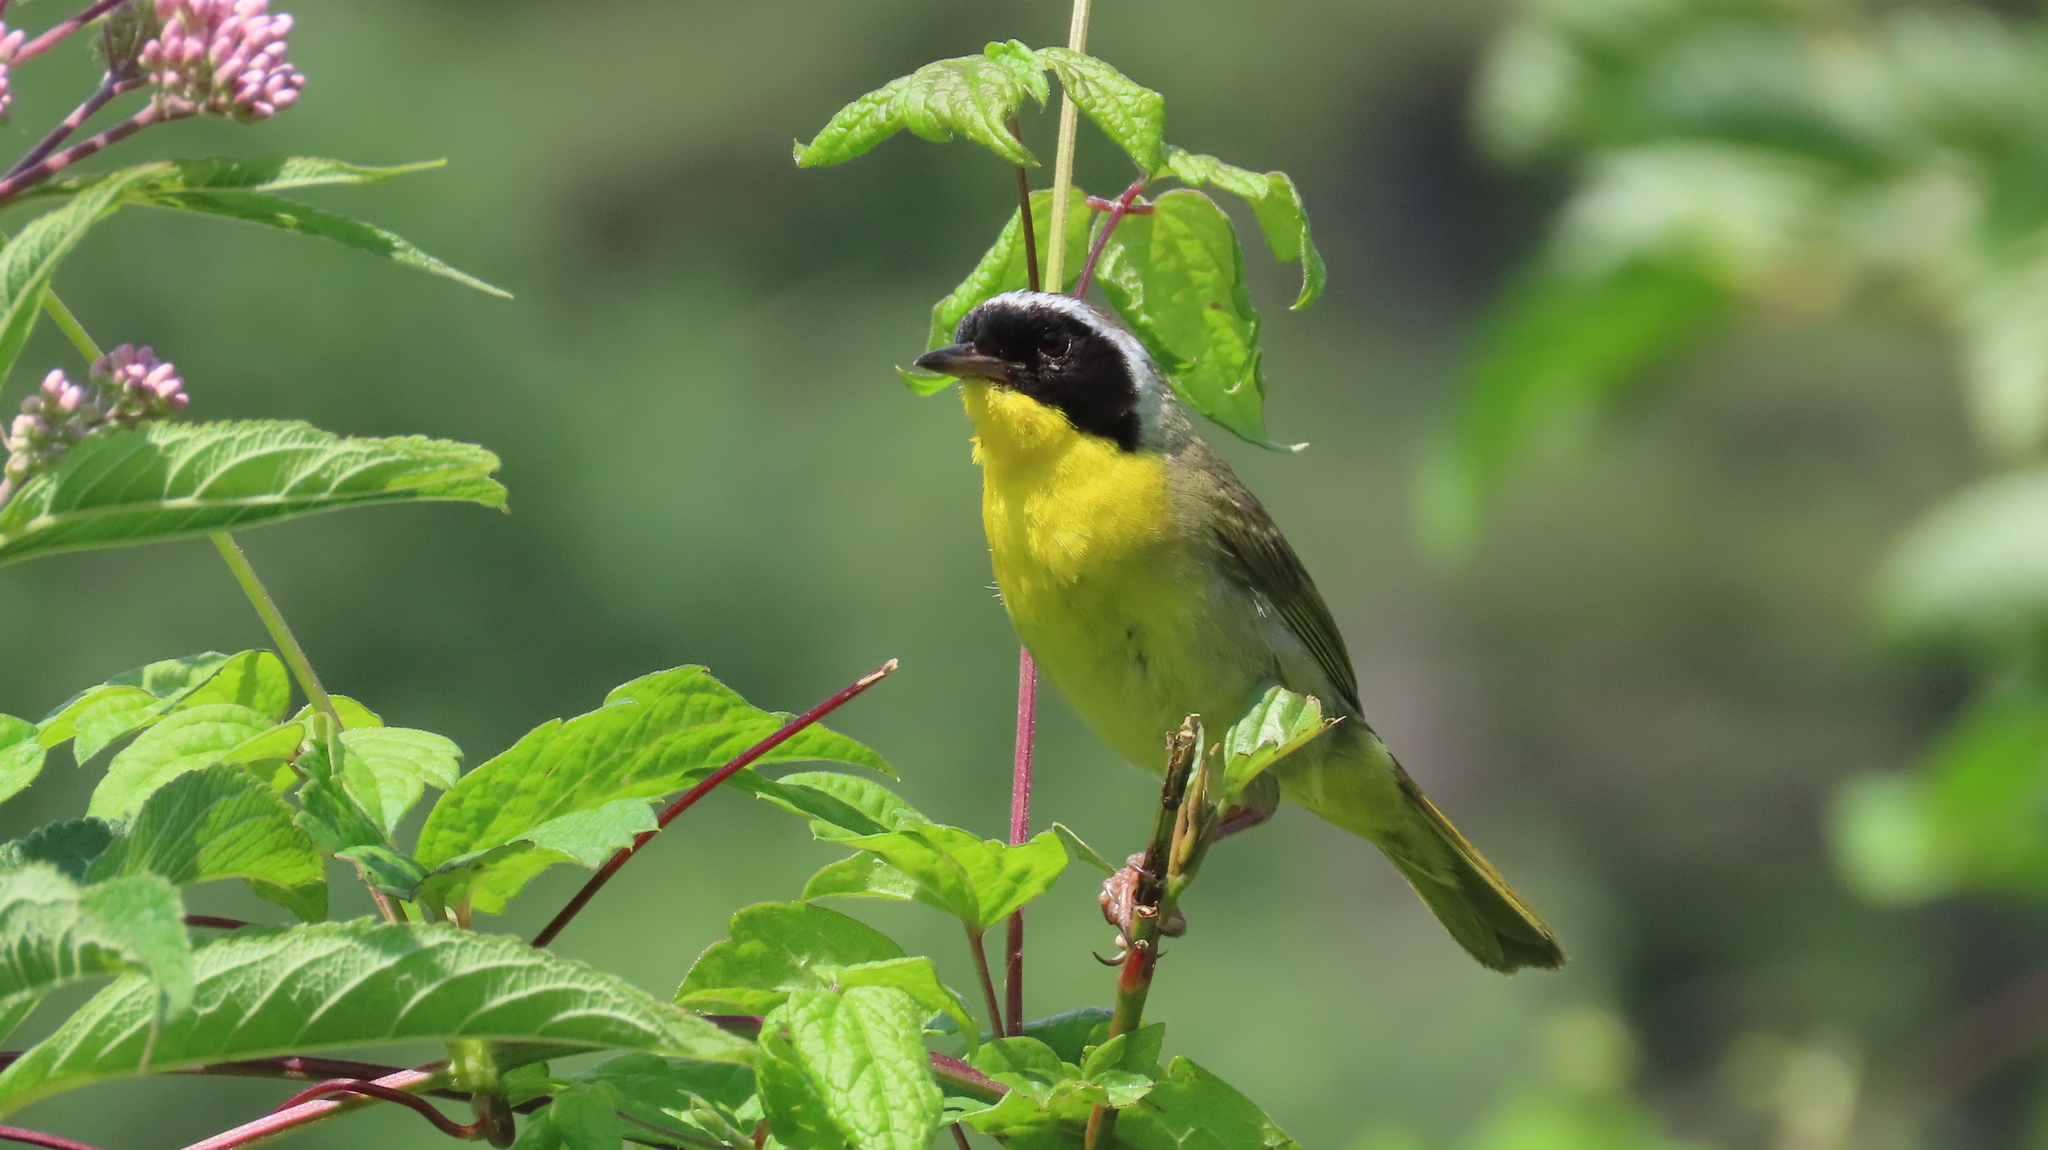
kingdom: Animalia
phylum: Chordata
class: Aves
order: Passeriformes
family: Parulidae
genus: Geothlypis
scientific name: Geothlypis trichas
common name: Common yellowthroat
